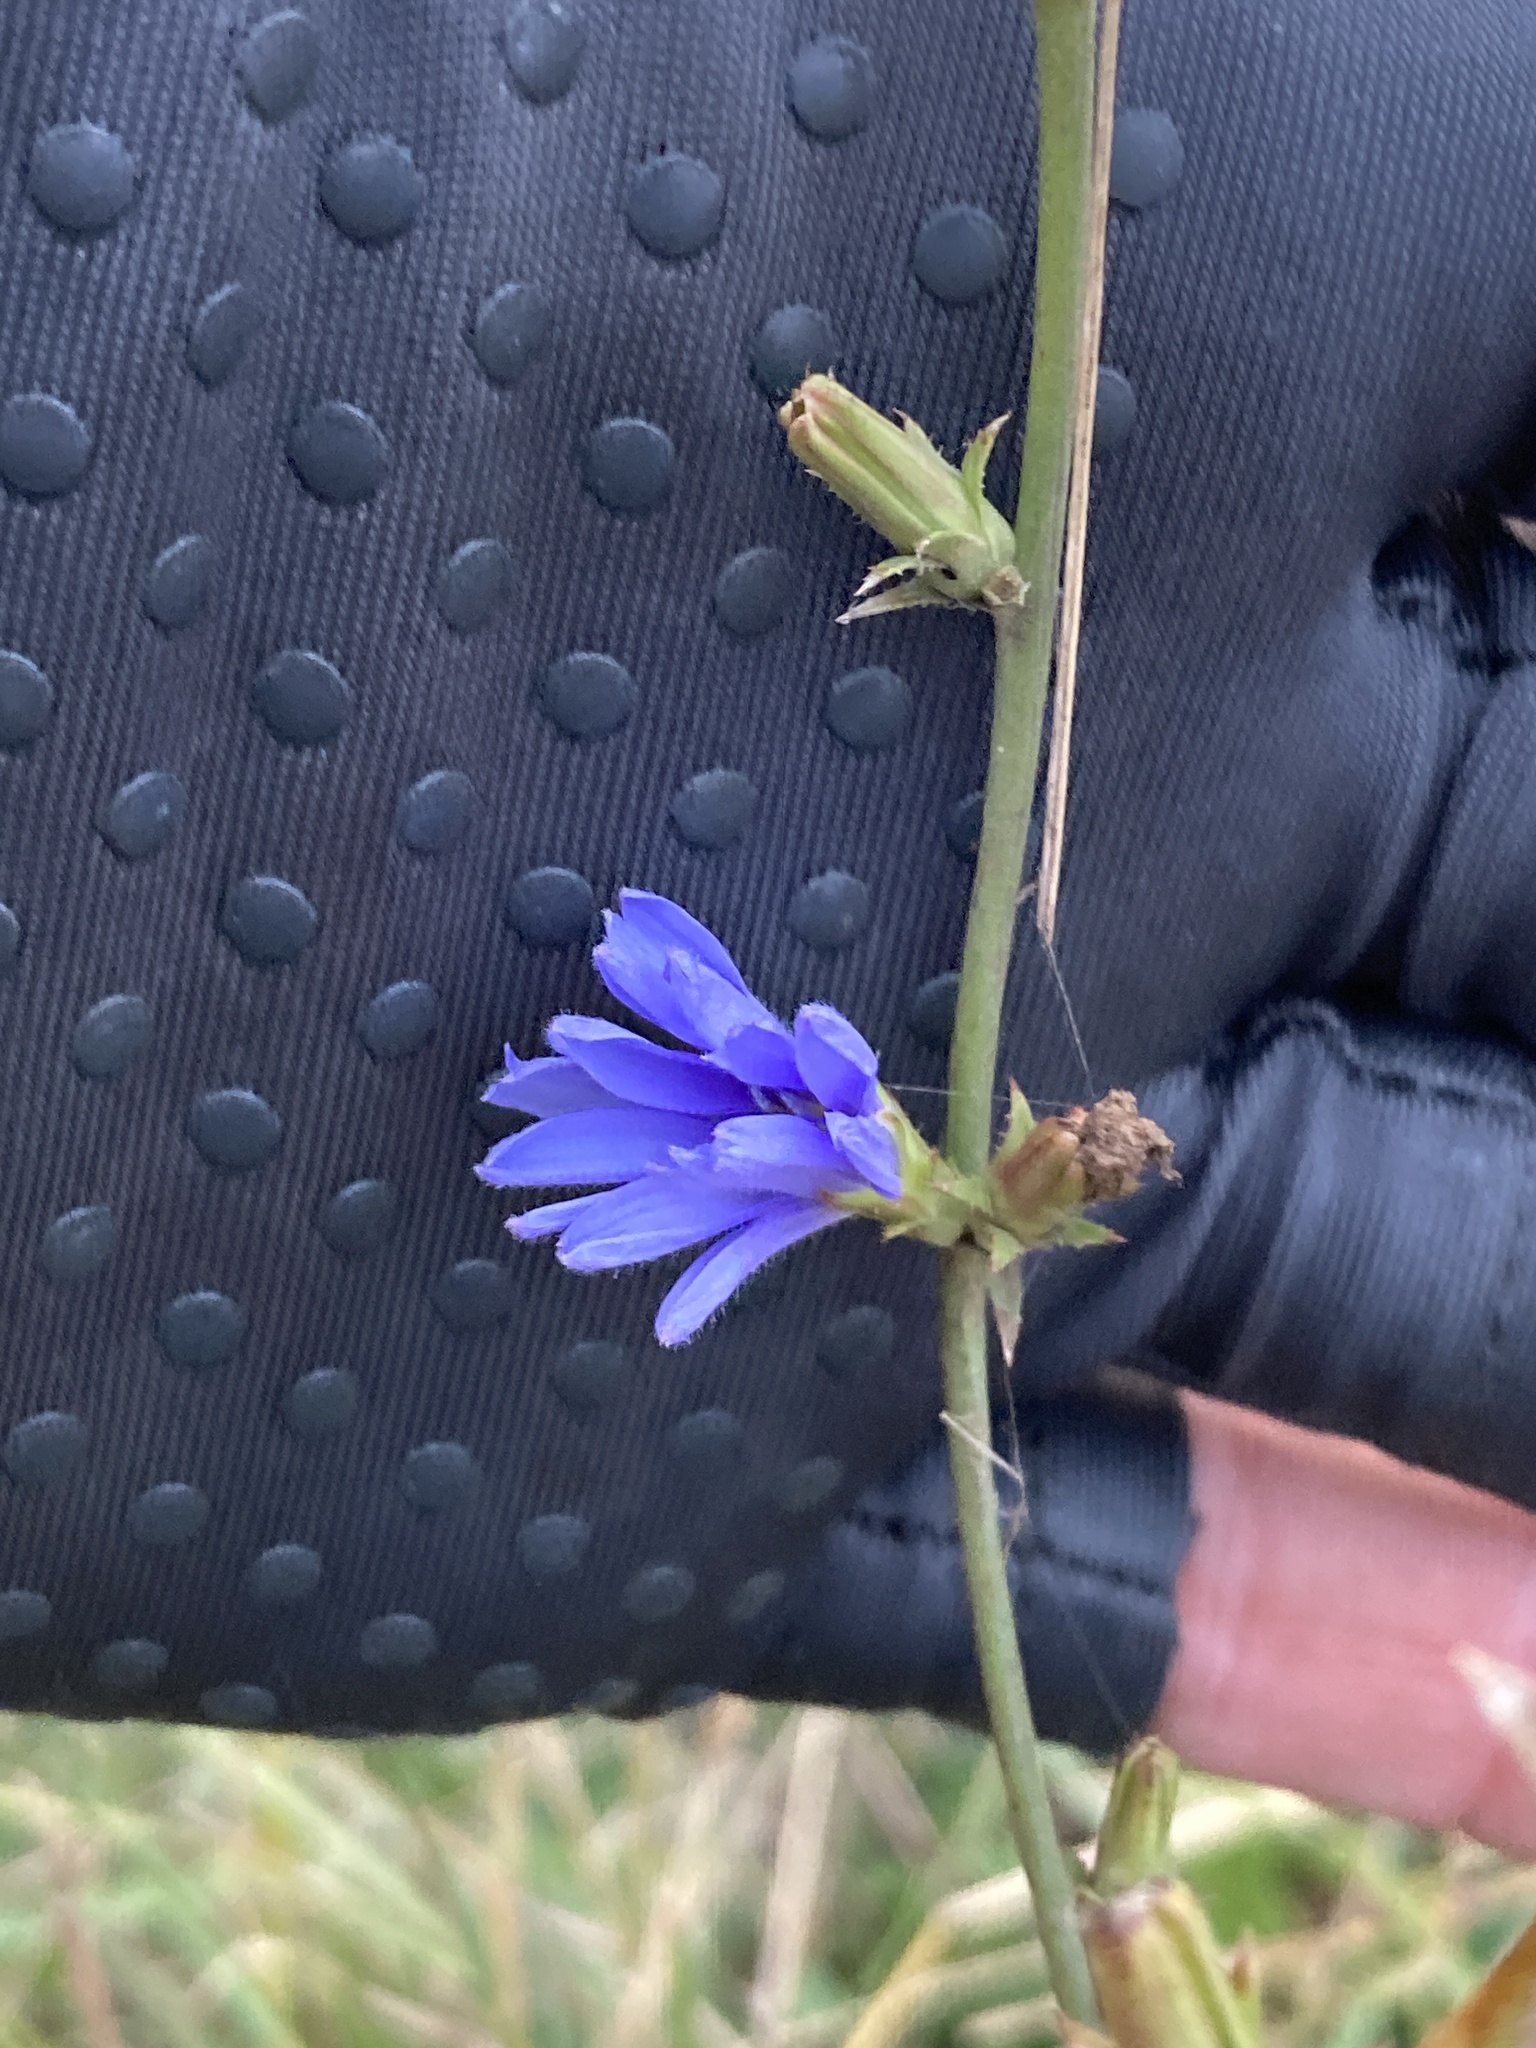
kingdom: Plantae
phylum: Tracheophyta
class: Magnoliopsida
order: Asterales
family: Asteraceae
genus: Cichorium
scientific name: Cichorium intybus
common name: Chicory
